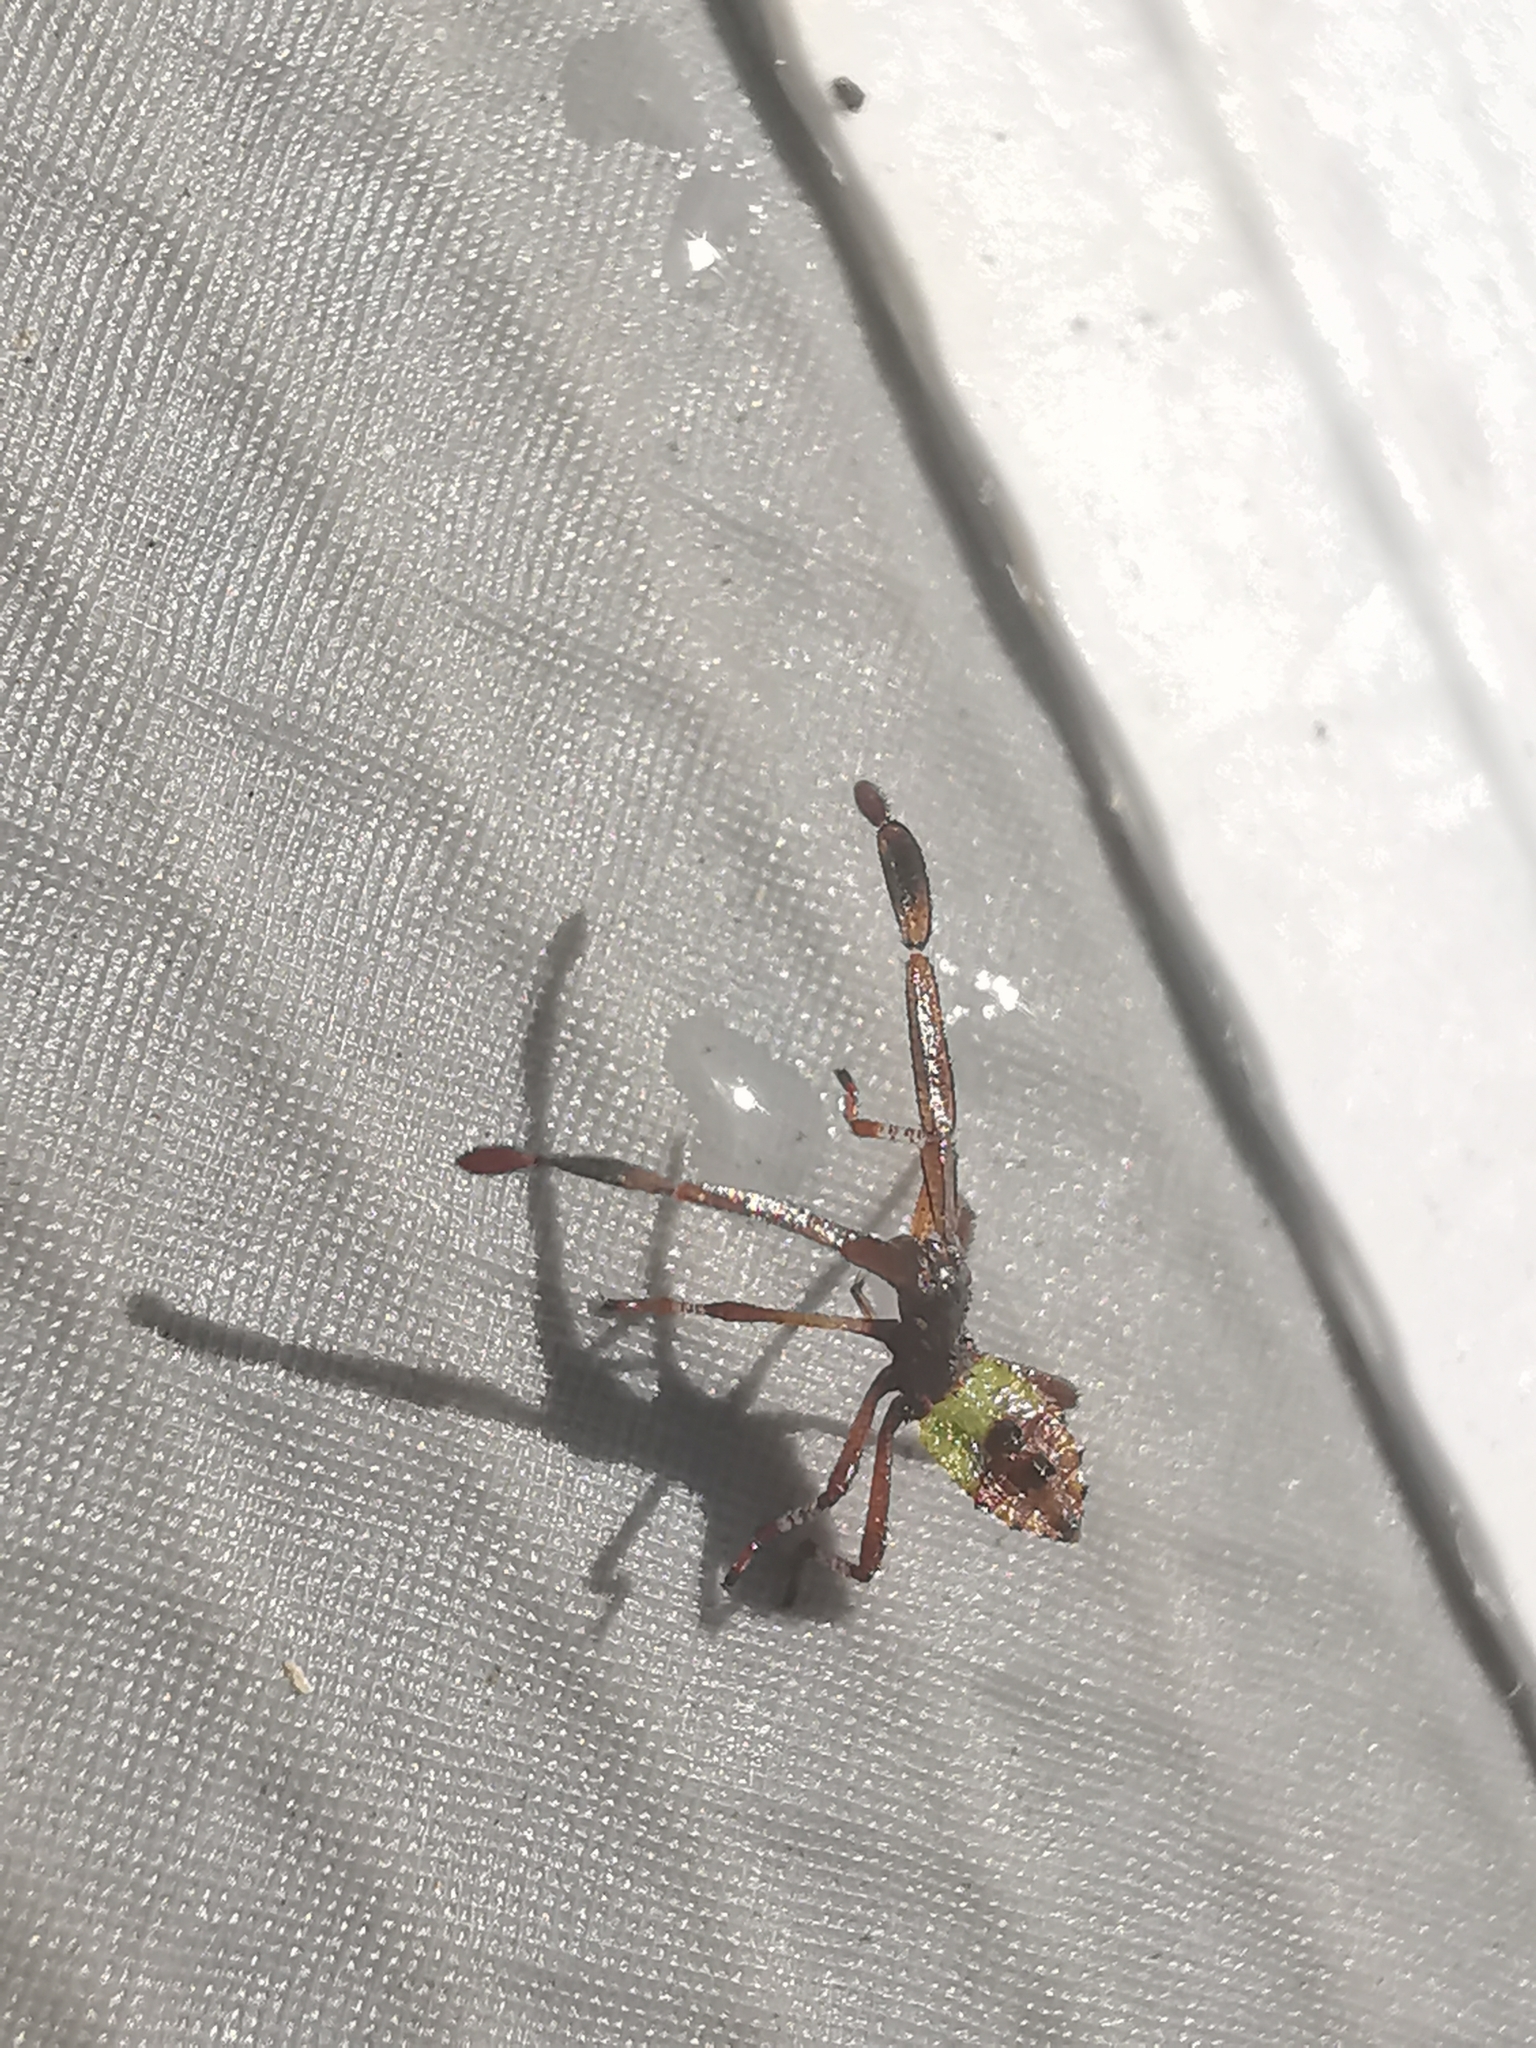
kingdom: Animalia
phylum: Arthropoda
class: Insecta
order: Hemiptera
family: Coreidae
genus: Gonocerus
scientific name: Gonocerus acuteangulatus
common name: Box bug
